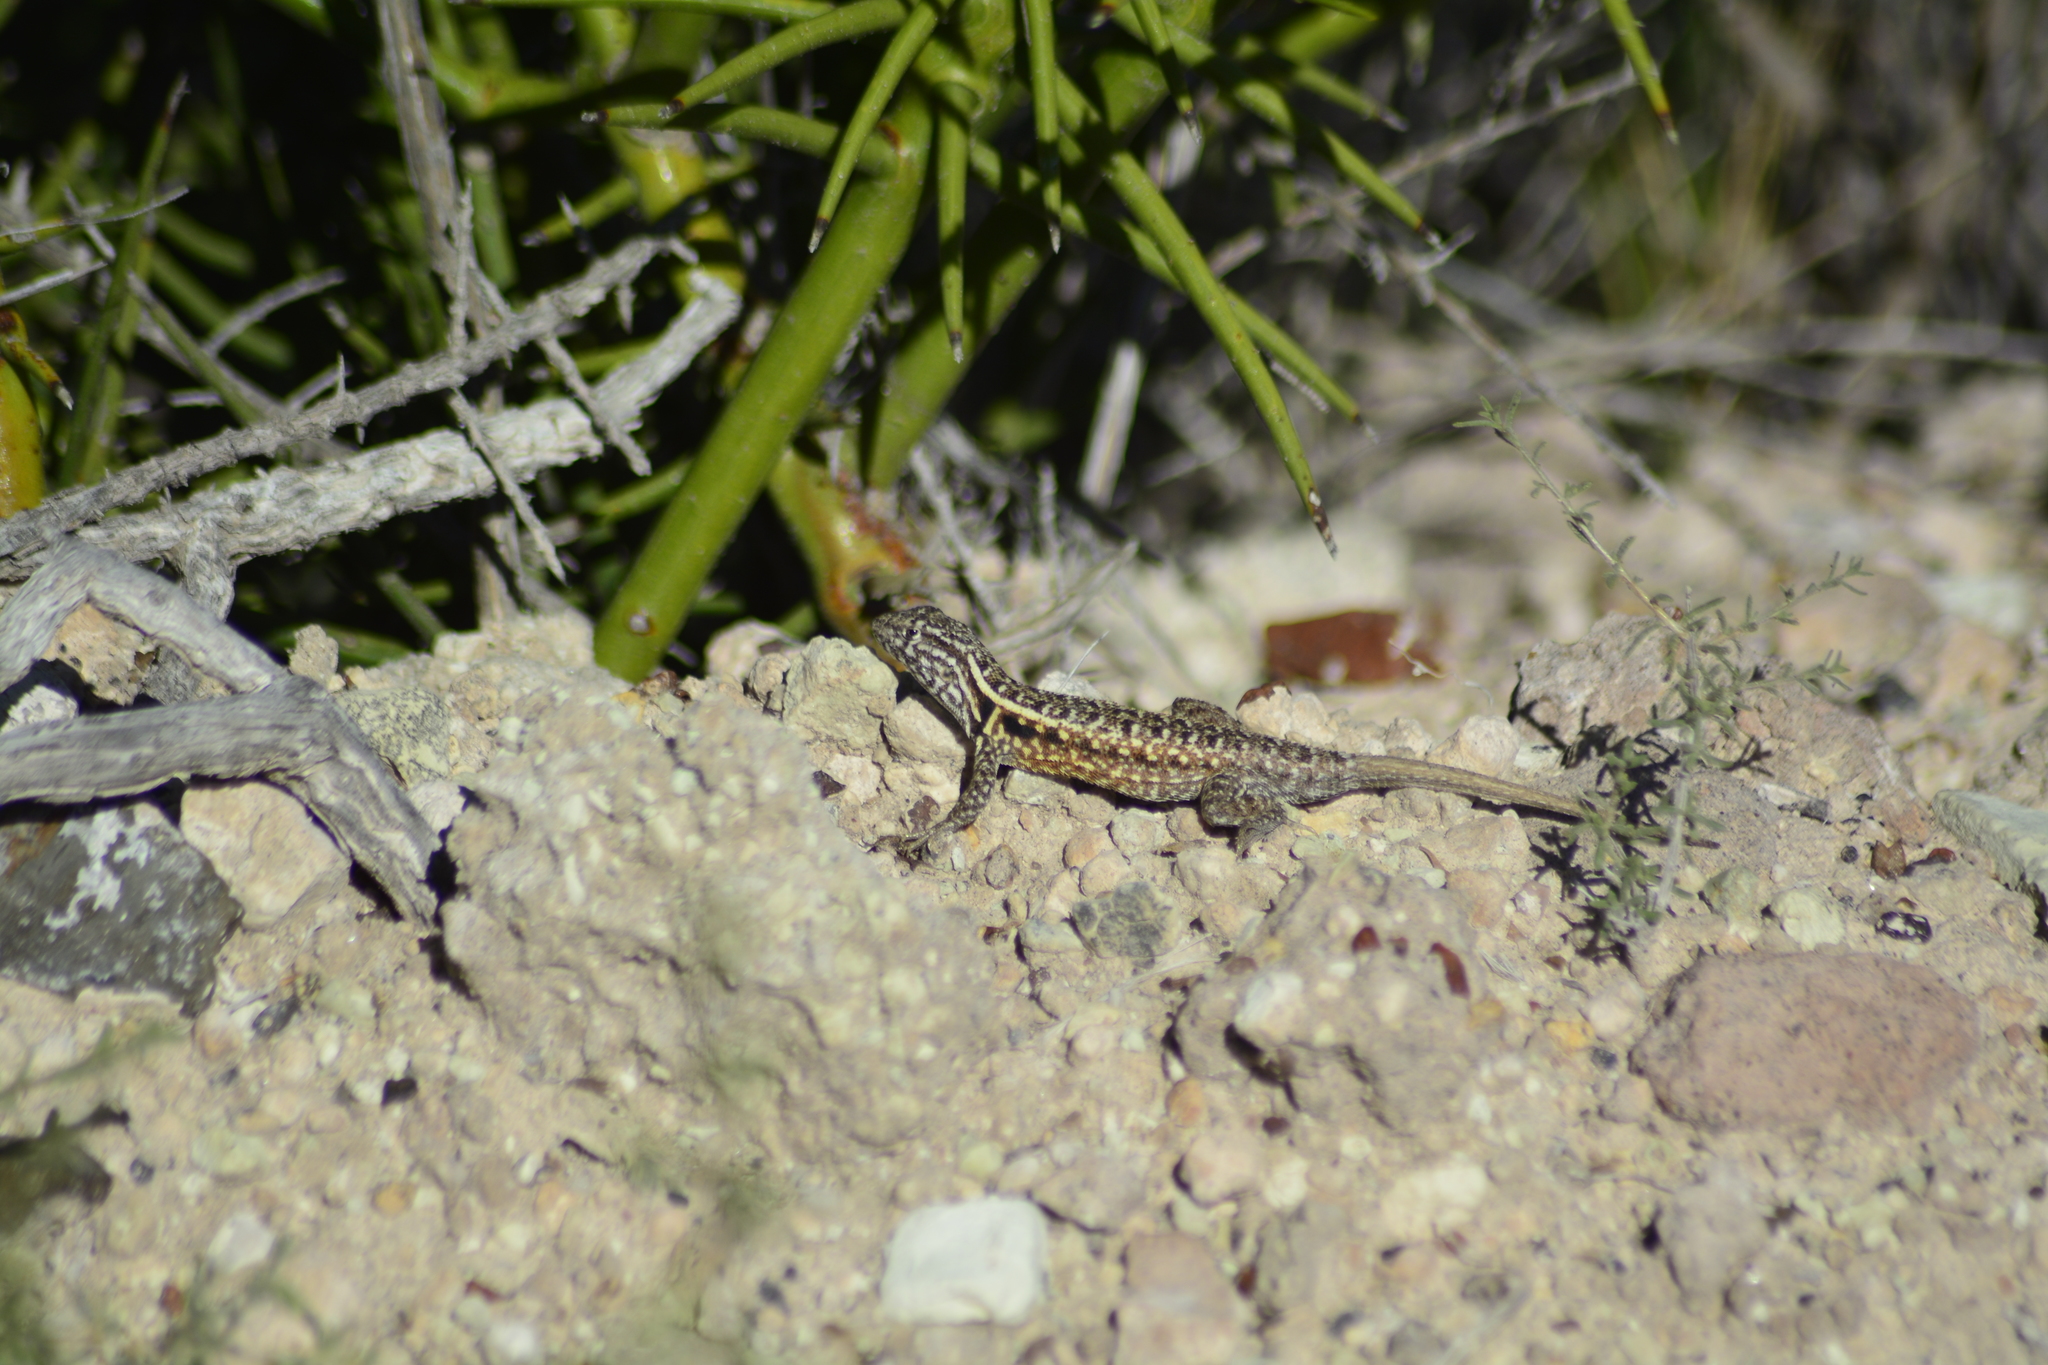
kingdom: Animalia
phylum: Chordata
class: Squamata
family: Liolaemidae
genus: Liolaemus
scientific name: Liolaemus darwinii
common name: Darwin's tree iguana
